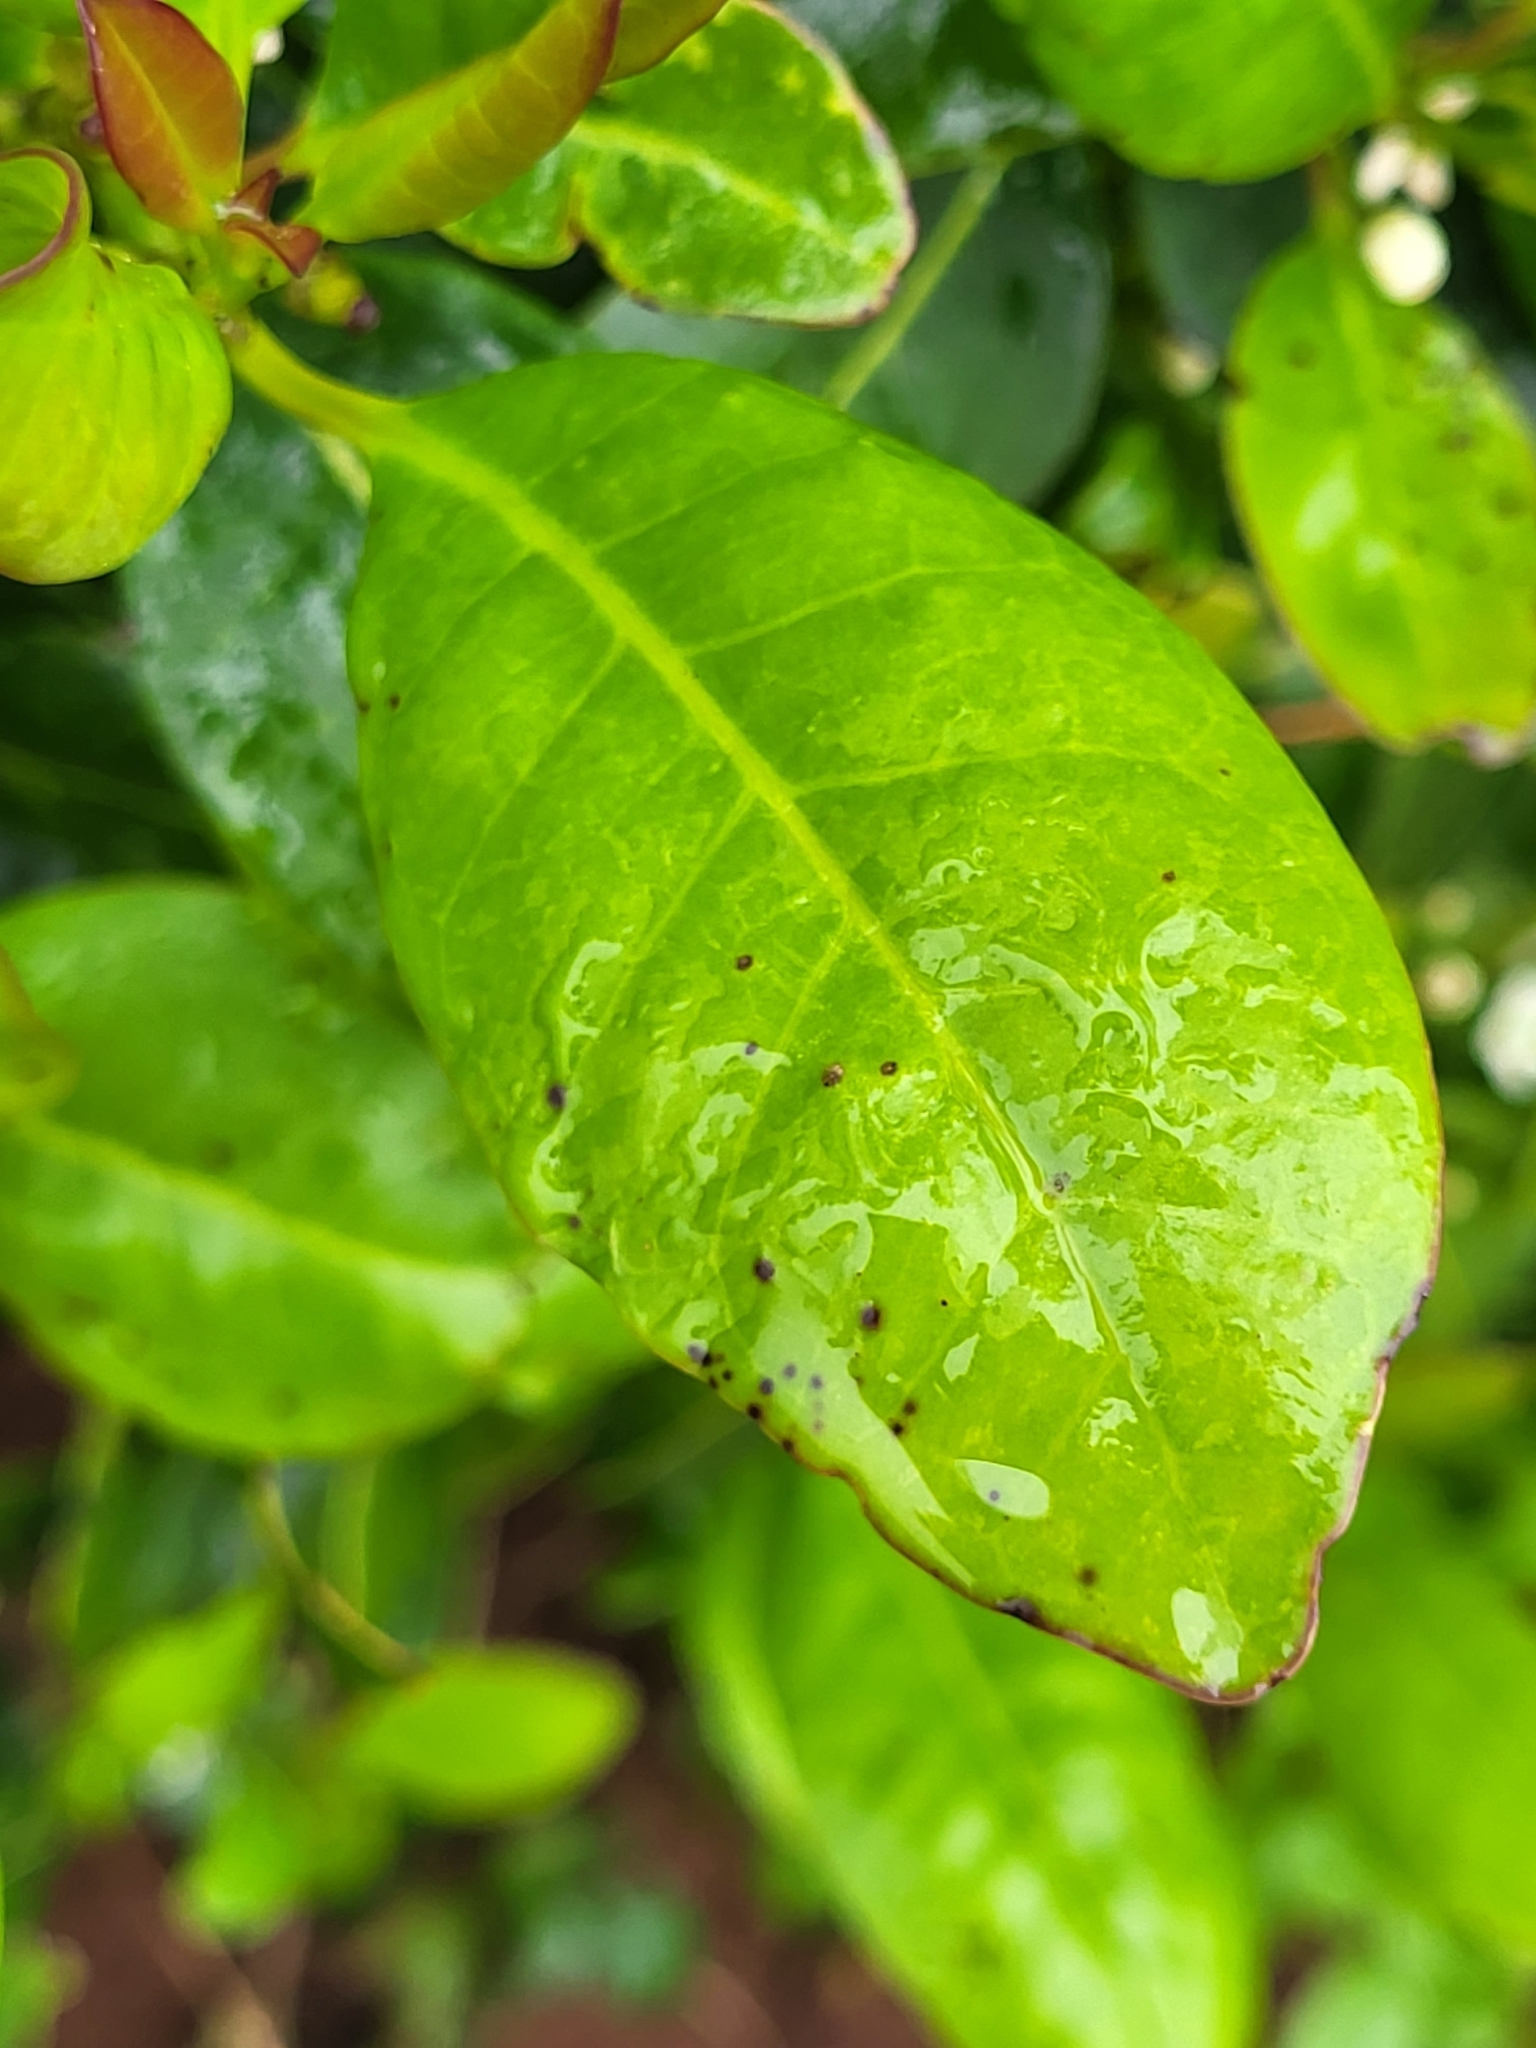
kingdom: Plantae
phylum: Tracheophyta
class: Magnoliopsida
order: Aquifoliales
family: Aquifoliaceae
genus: Ilex
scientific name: Ilex canariensis
